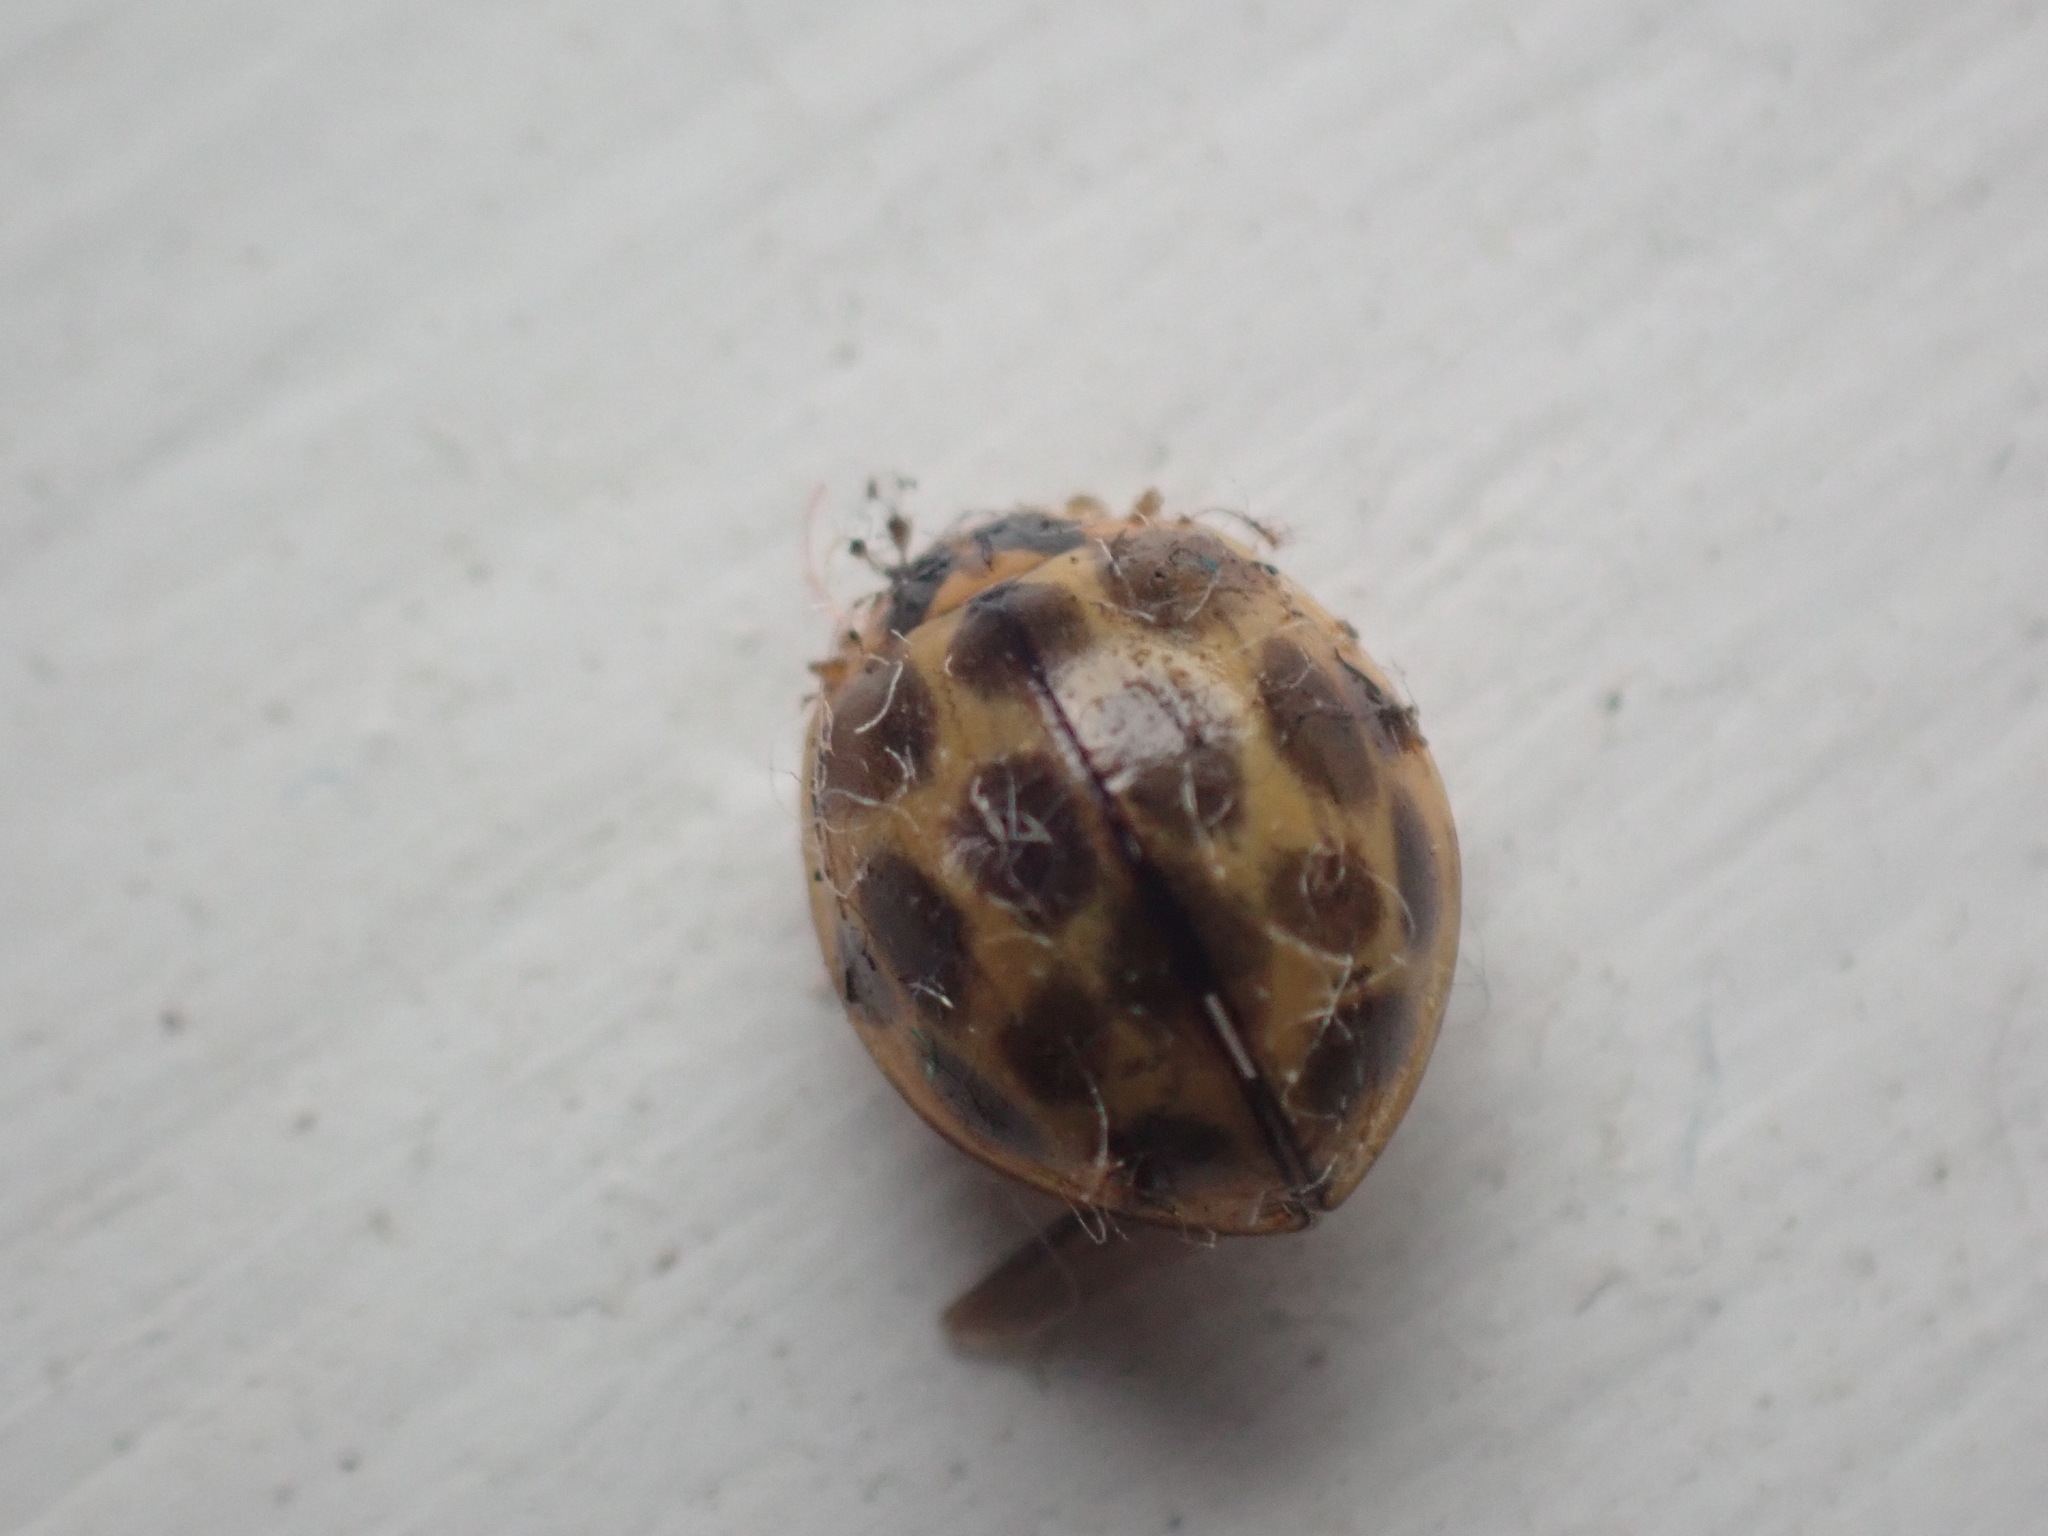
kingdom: Animalia
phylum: Arthropoda
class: Insecta
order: Coleoptera
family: Coccinellidae
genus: Harmonia
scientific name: Harmonia
